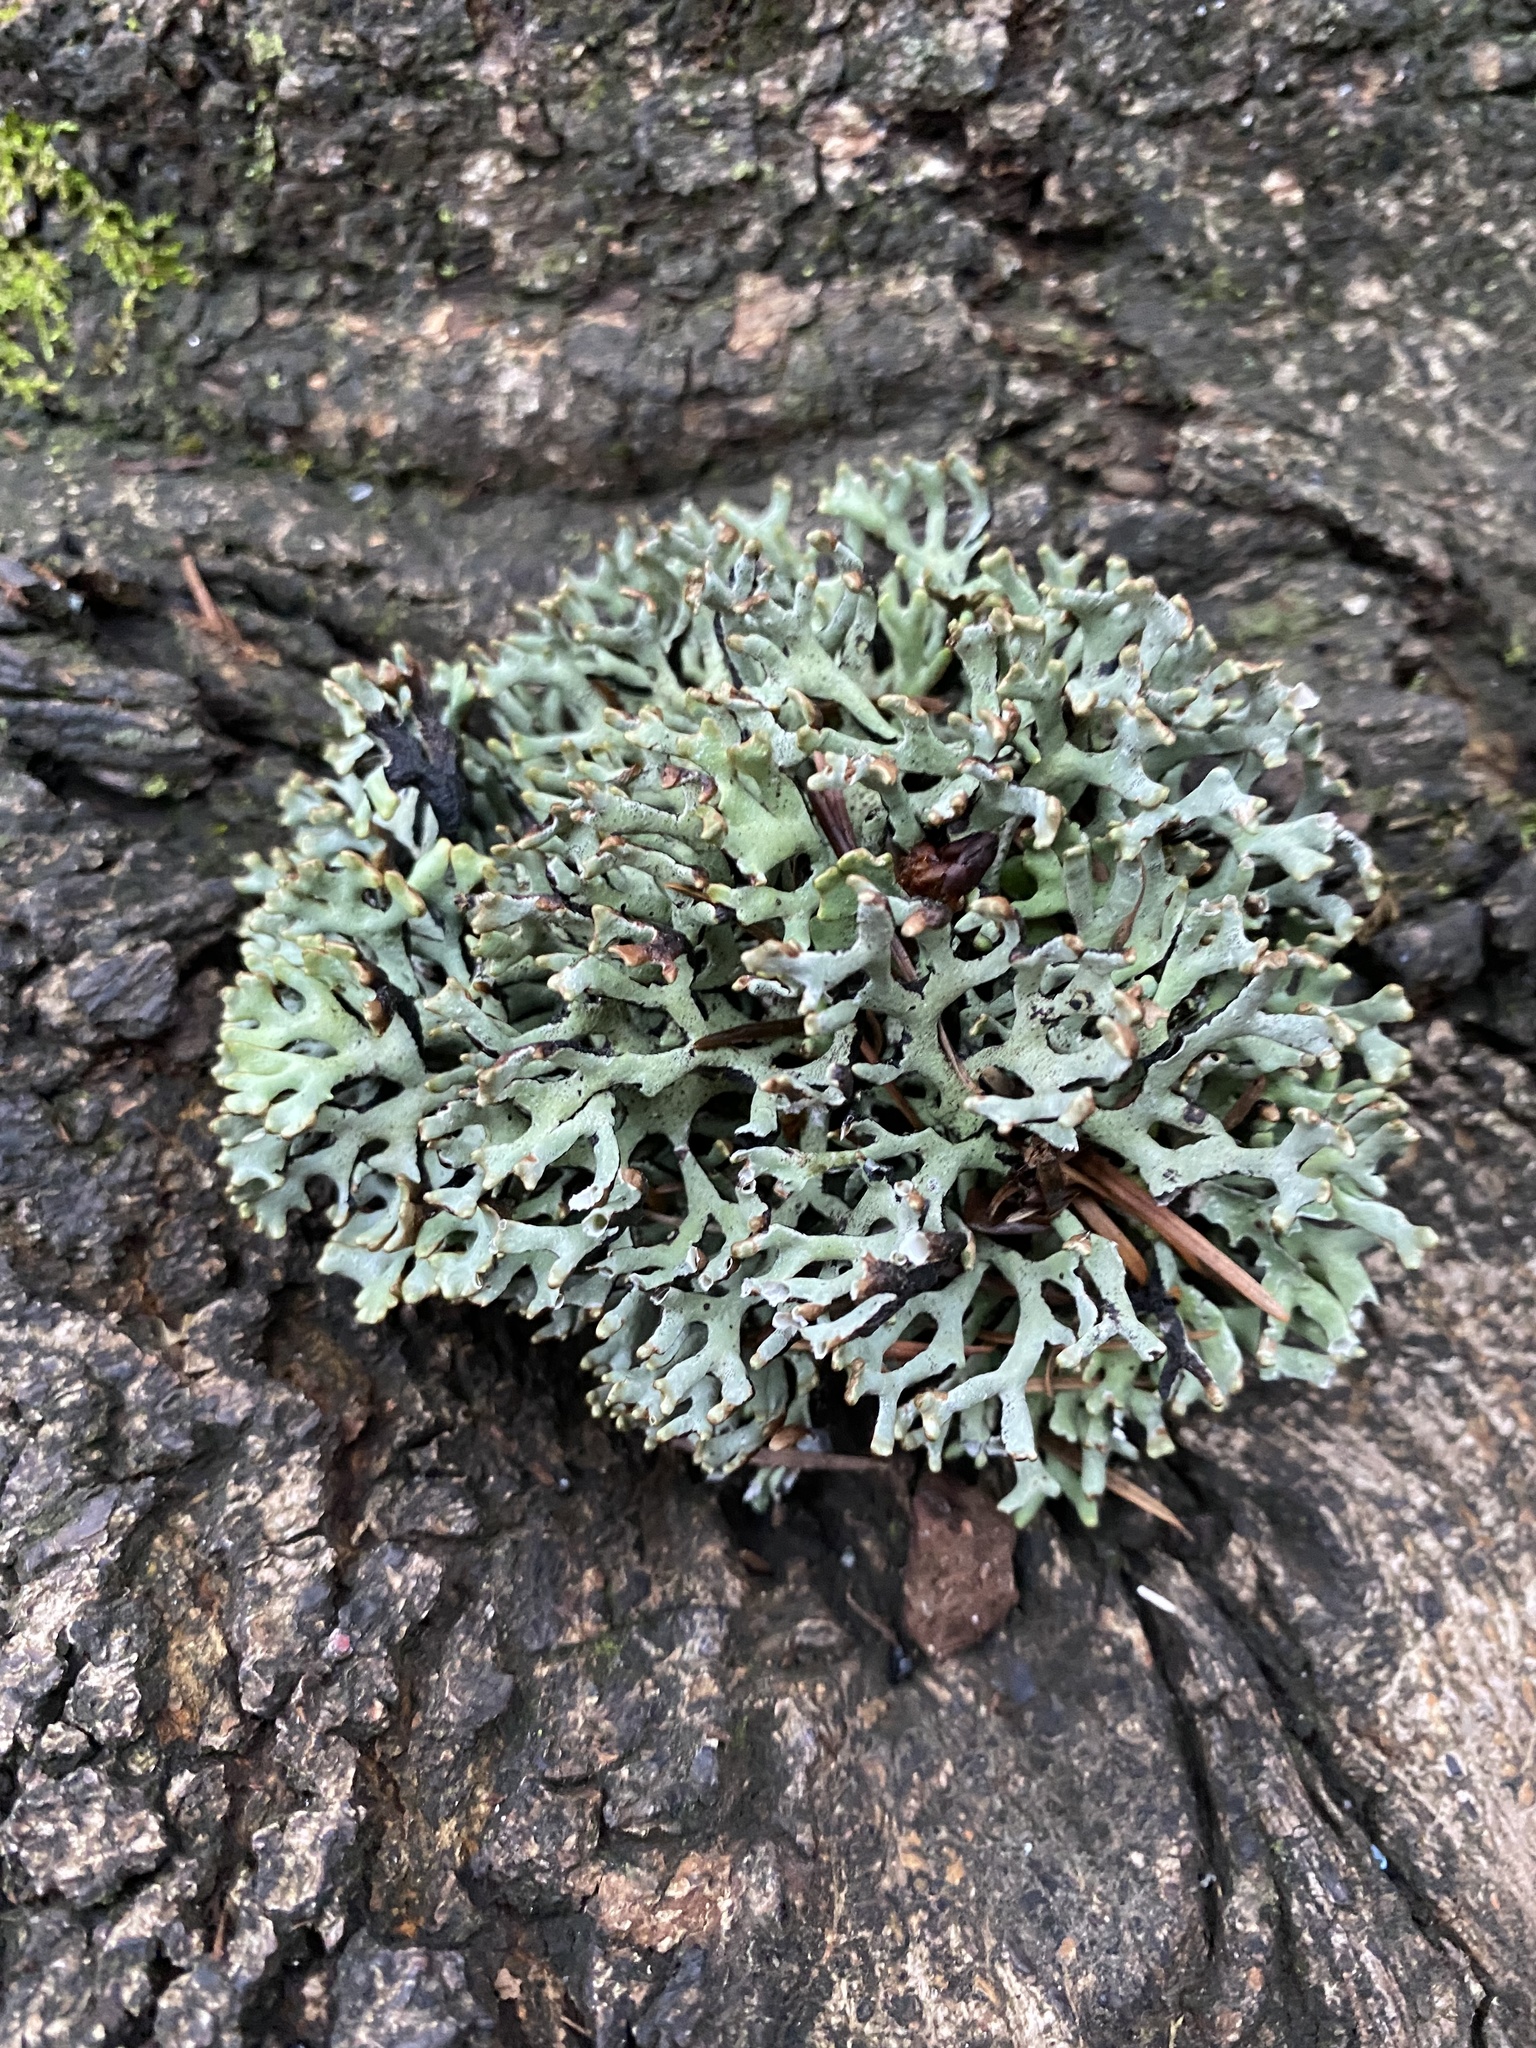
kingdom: Fungi
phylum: Ascomycota
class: Lecanoromycetes
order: Lecanorales
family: Parmeliaceae
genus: Hypogymnia
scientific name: Hypogymnia imshaugii
